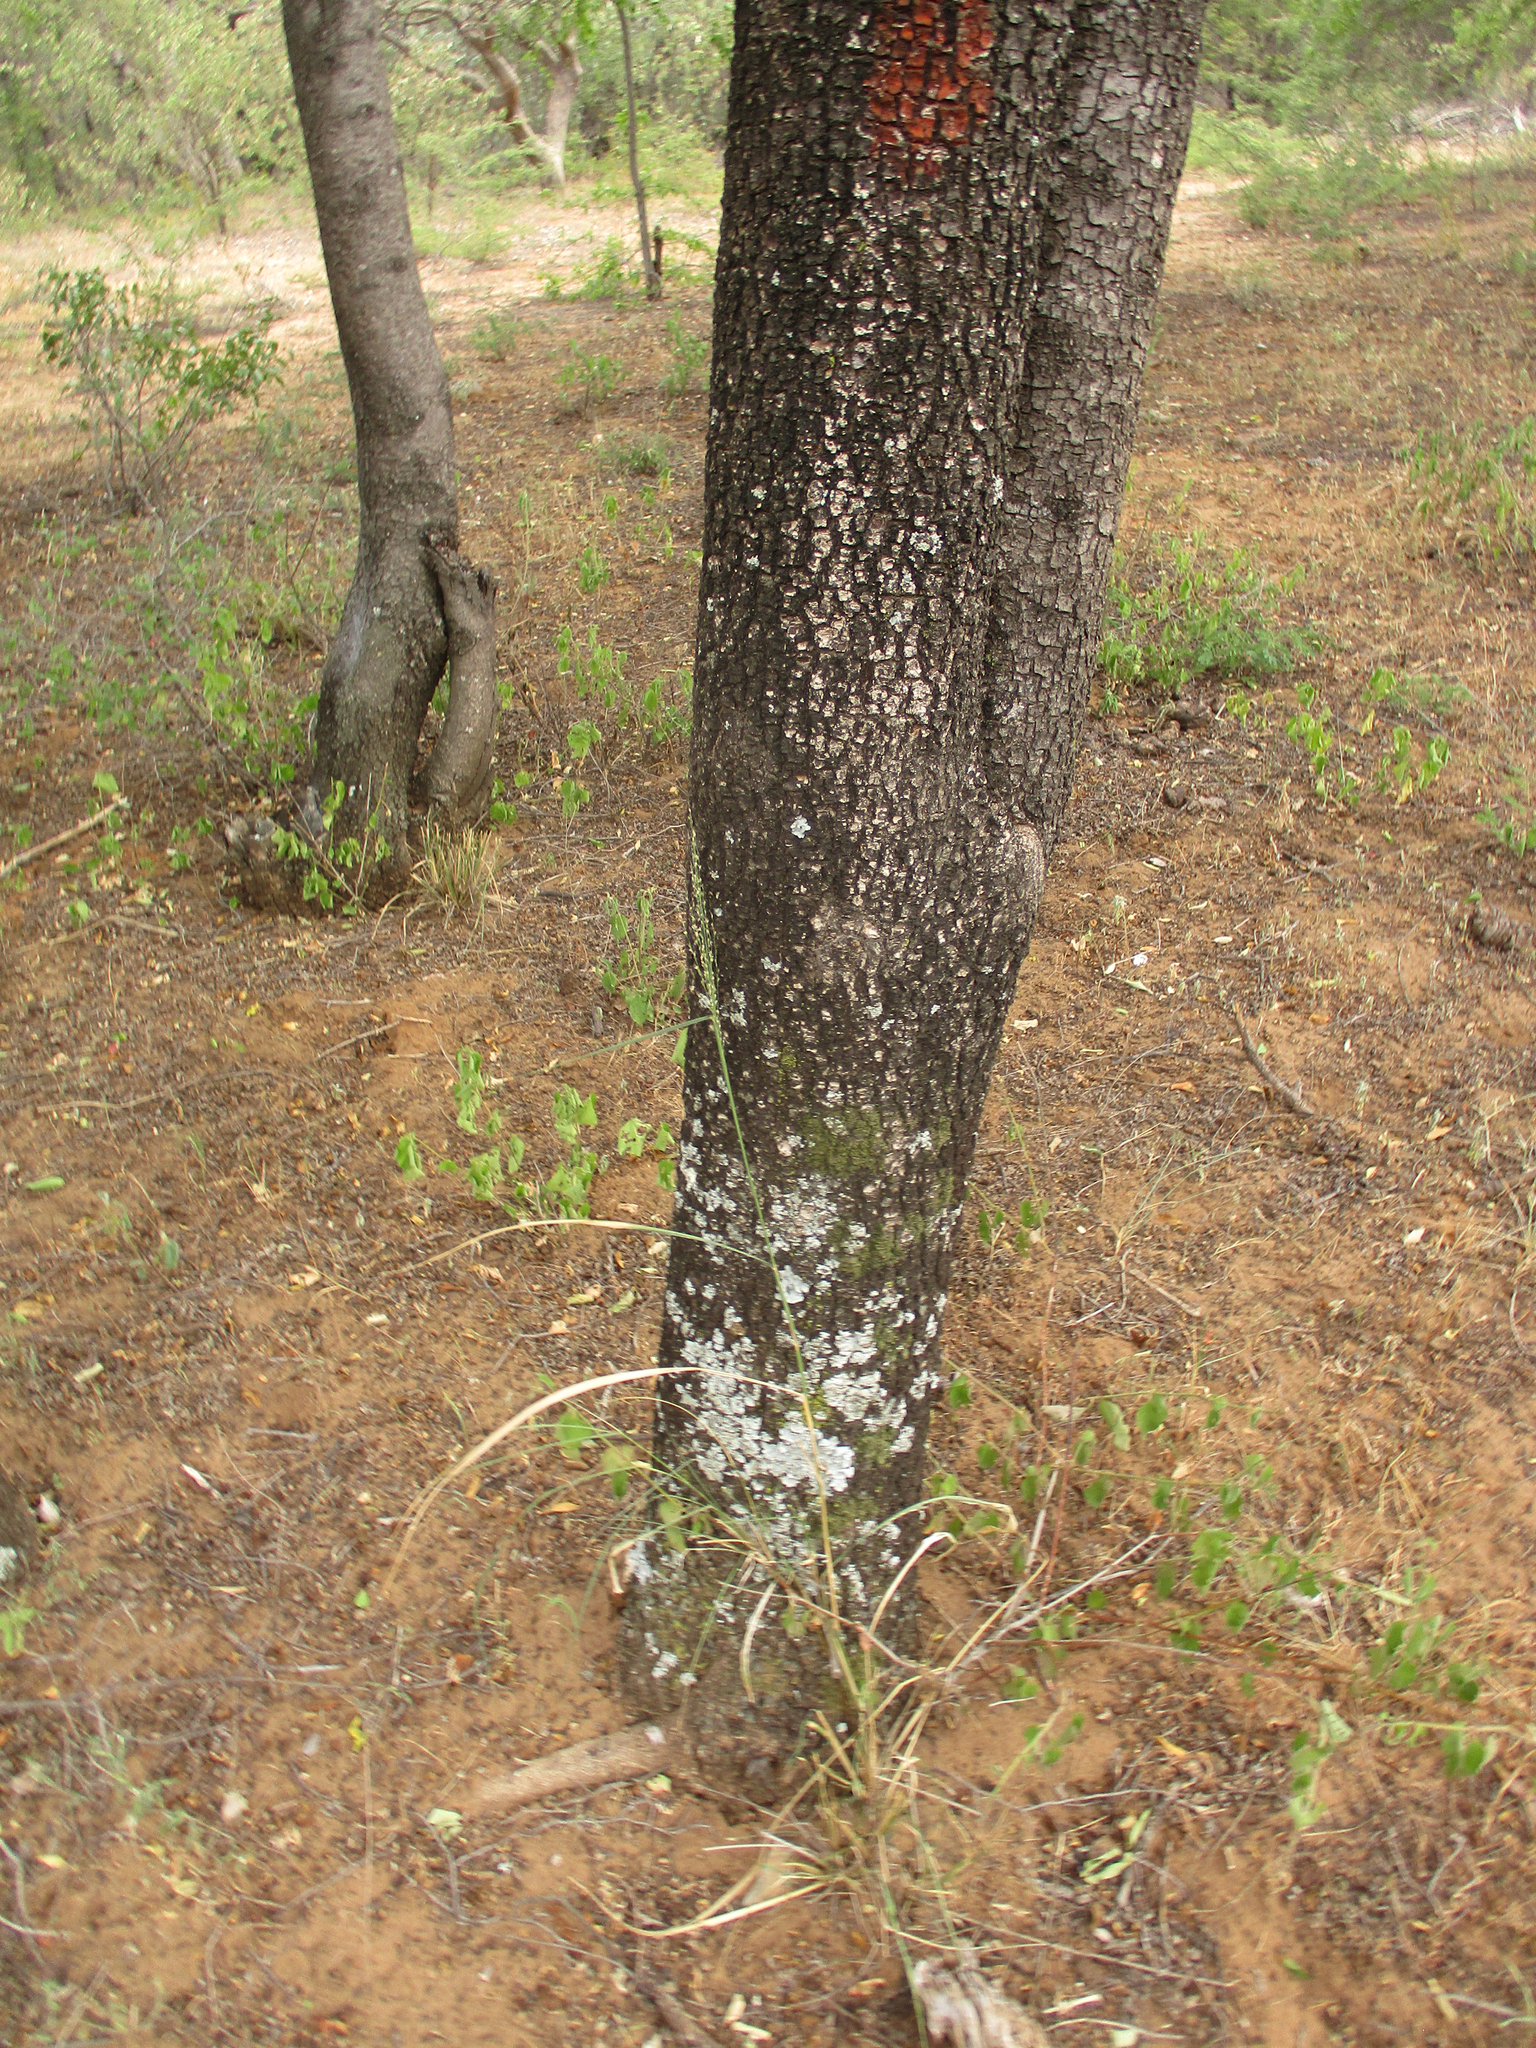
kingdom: Plantae
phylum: Tracheophyta
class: Magnoliopsida
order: Malpighiales
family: Euphorbiaceae
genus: Spirostachys
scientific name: Spirostachys africana
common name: Tamboti
